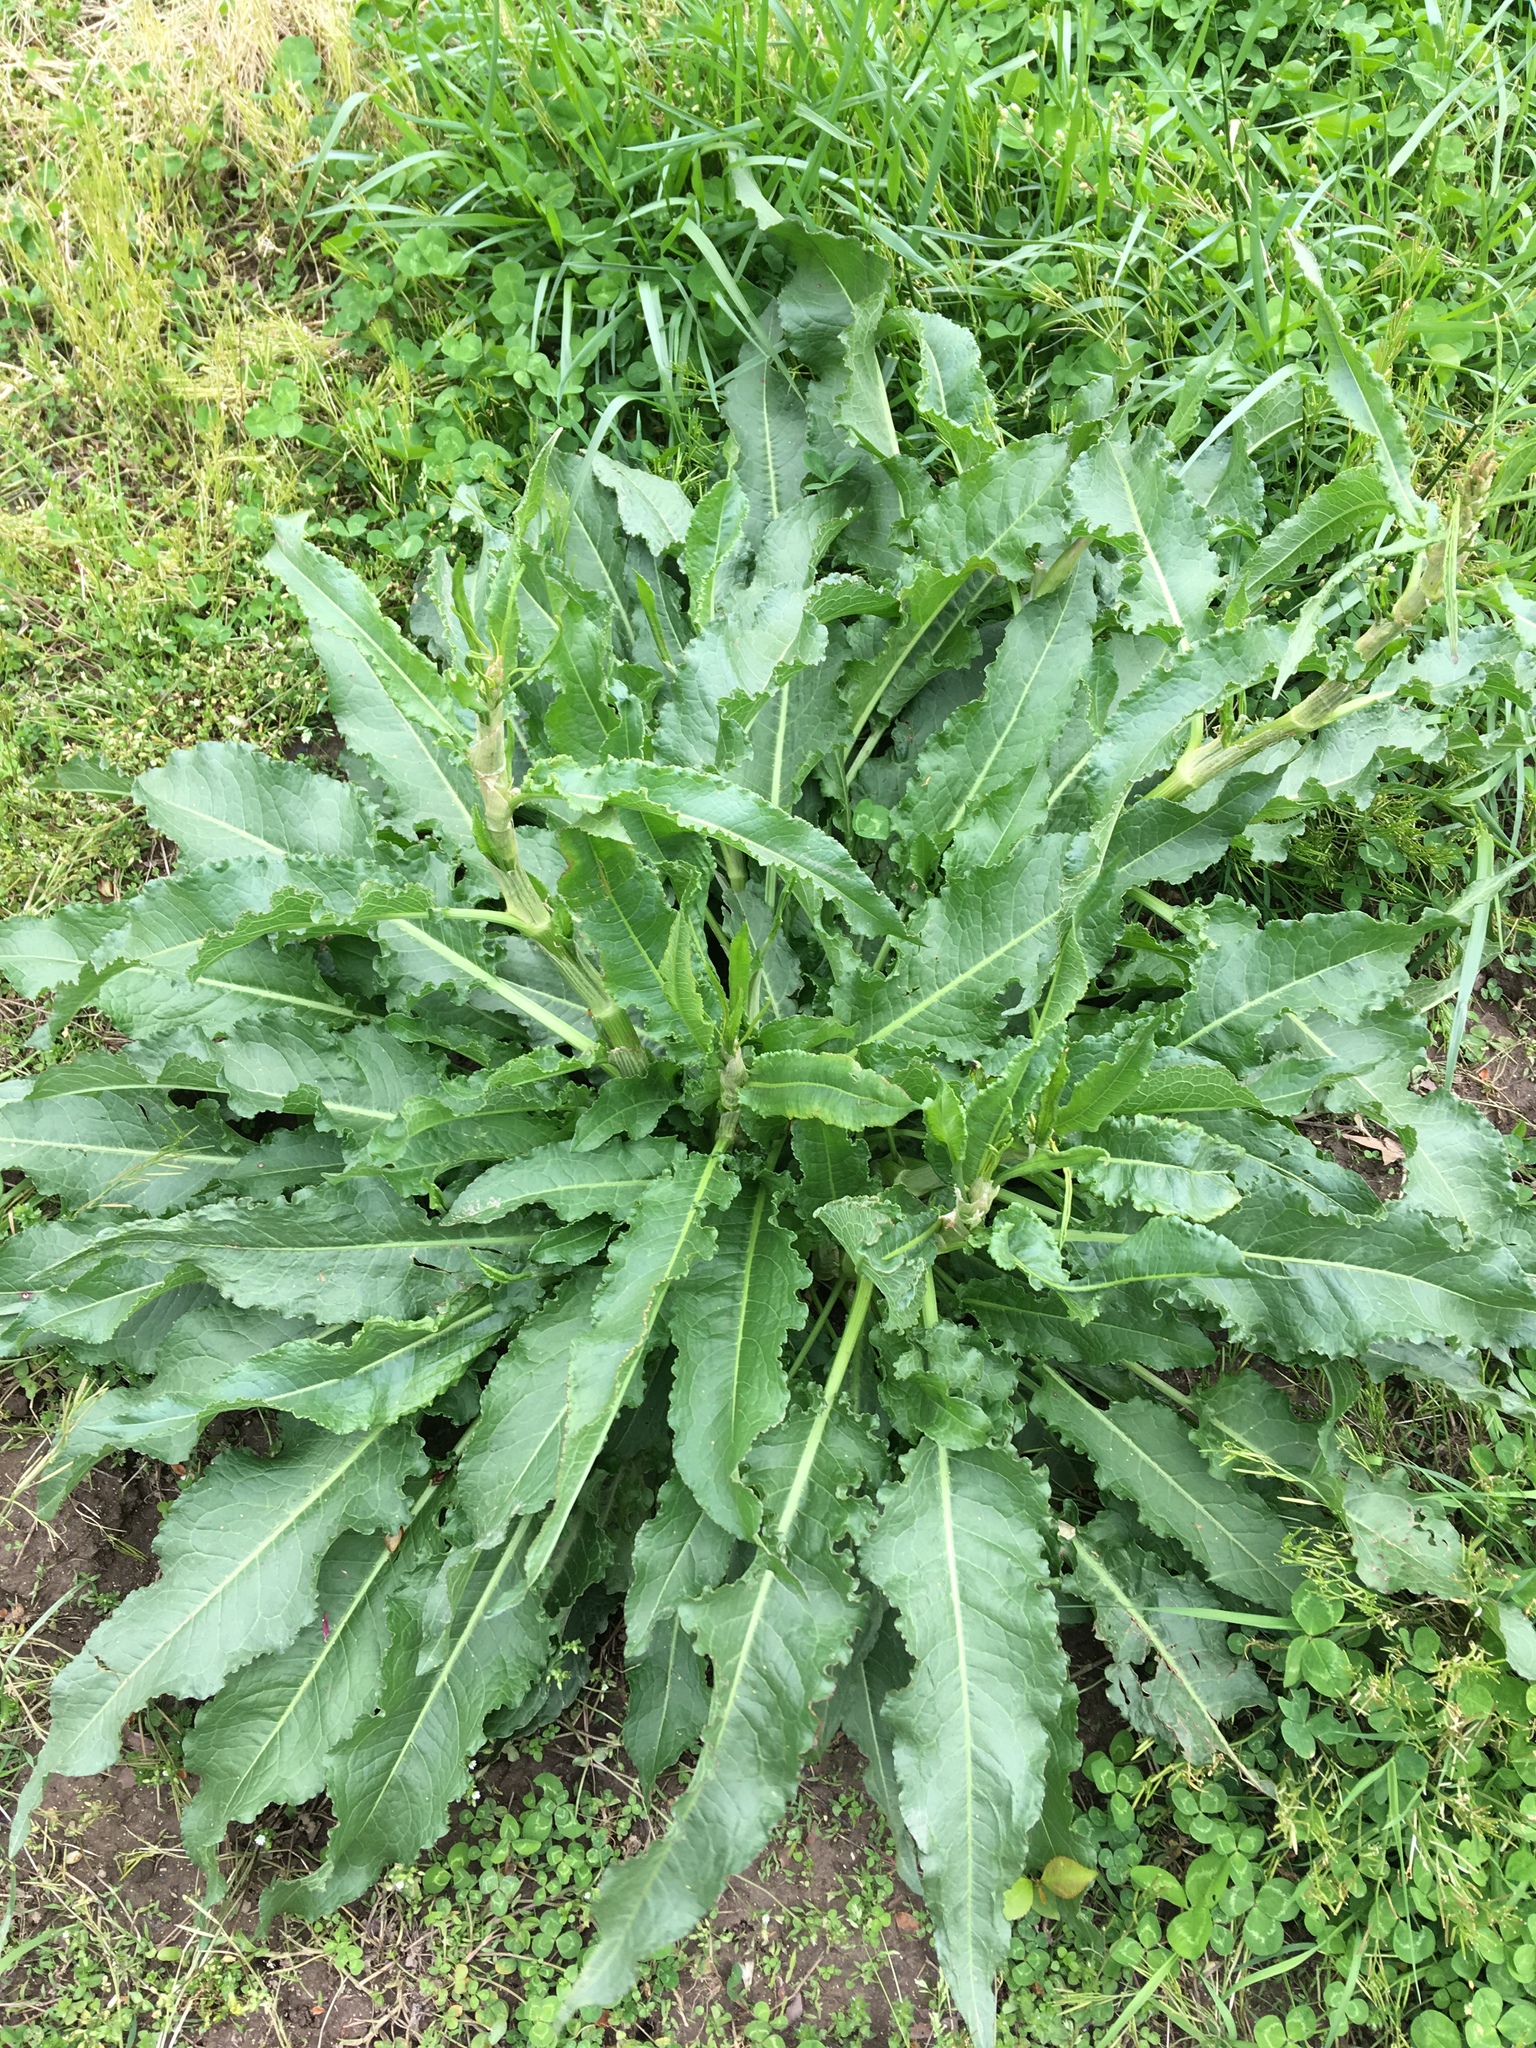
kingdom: Plantae
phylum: Tracheophyta
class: Magnoliopsida
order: Caryophyllales
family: Polygonaceae
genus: Rumex
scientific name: Rumex crispus
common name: Curled dock
